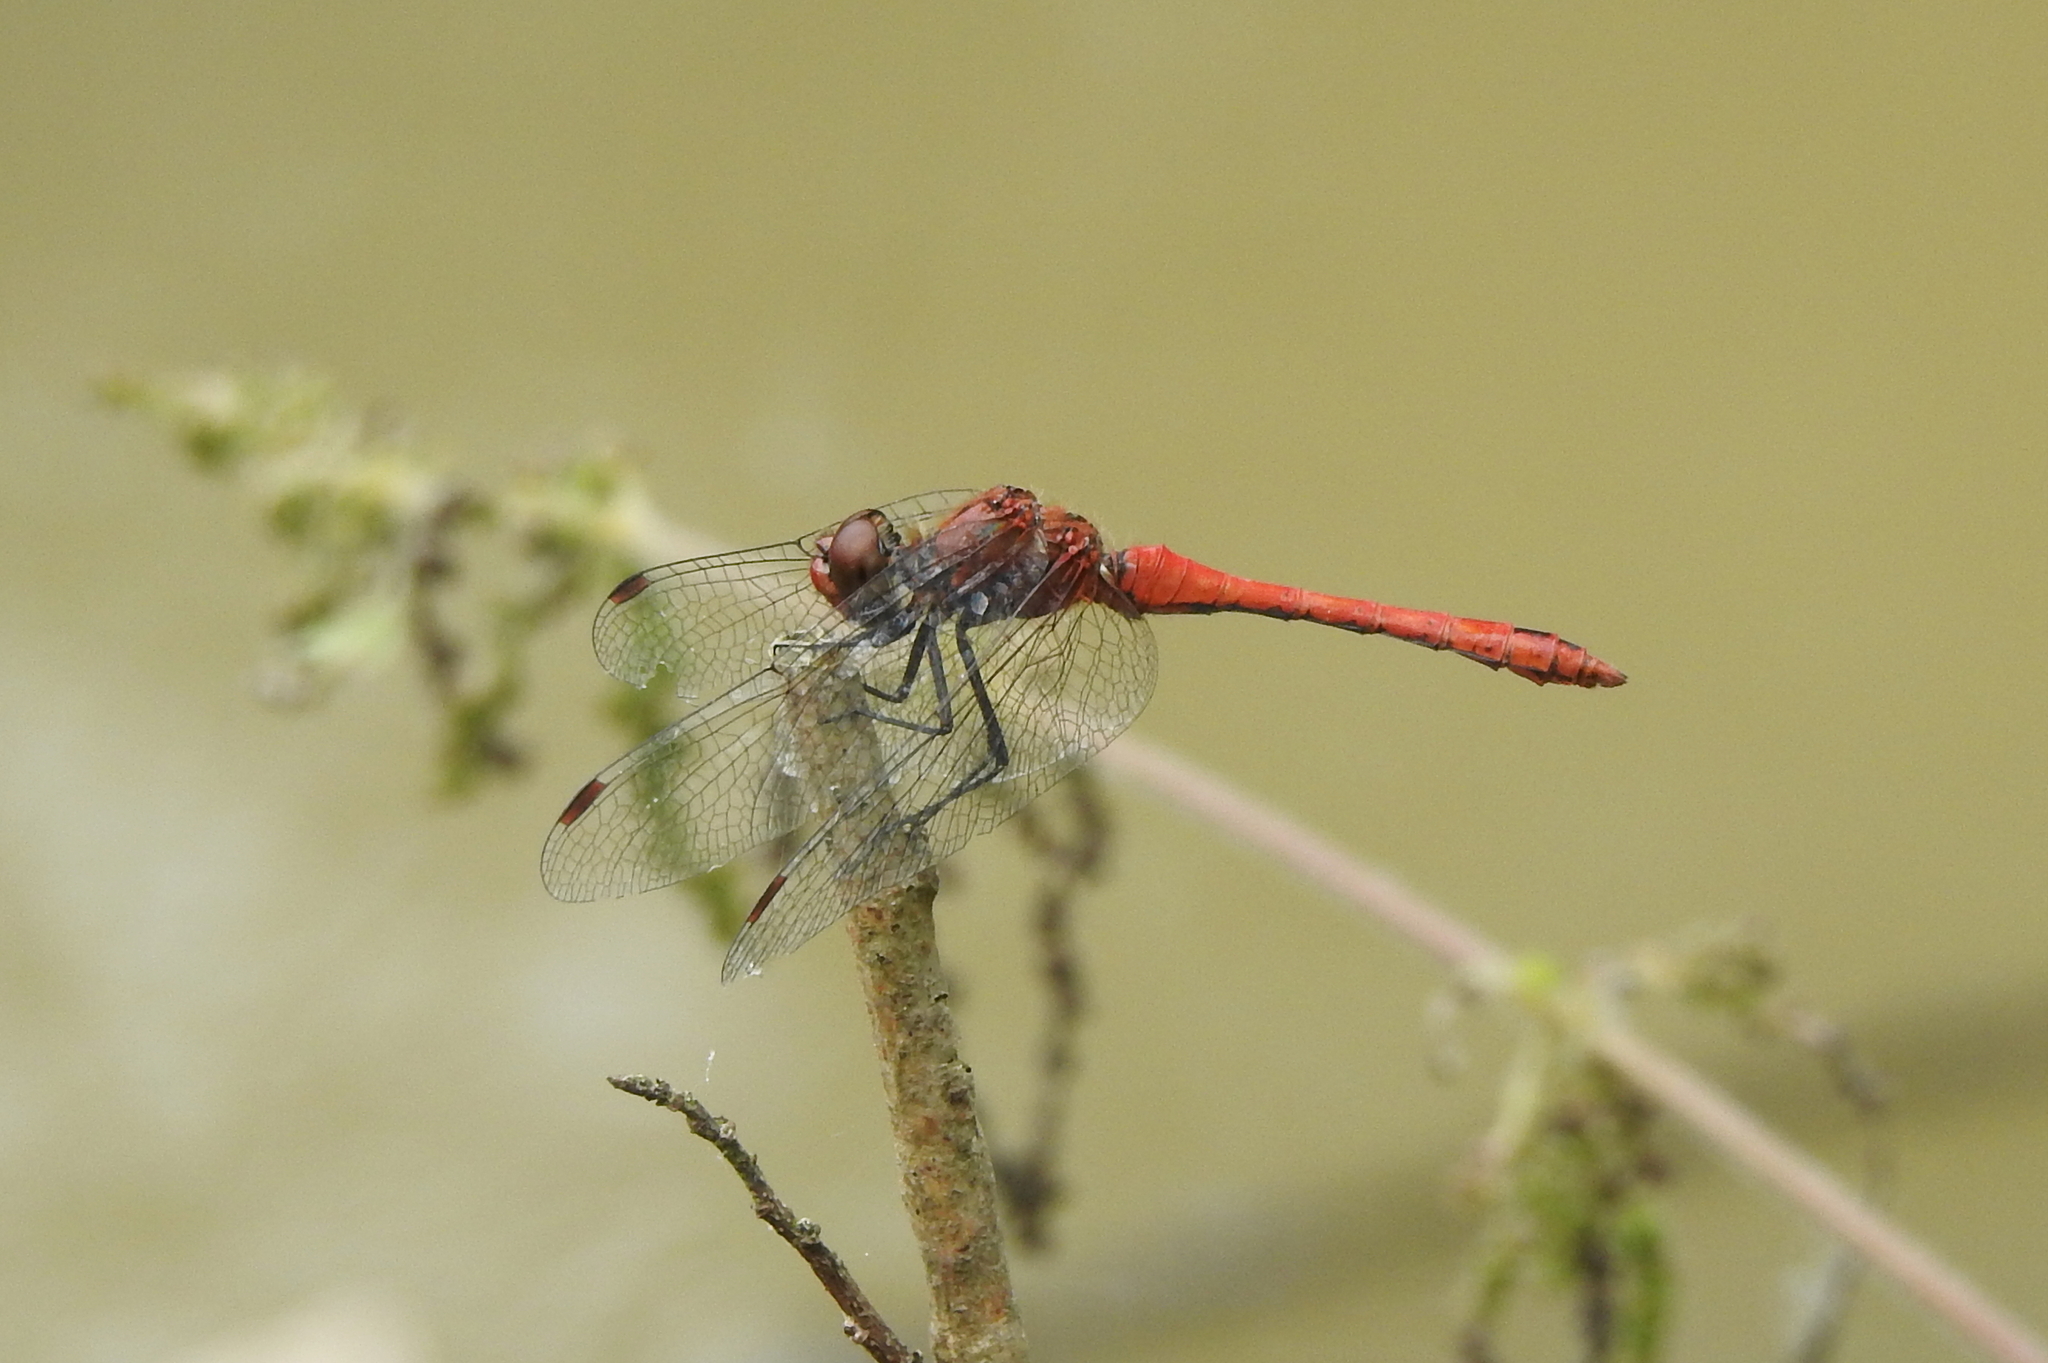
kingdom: Animalia
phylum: Arthropoda
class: Insecta
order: Odonata
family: Libellulidae
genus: Sympetrum
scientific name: Sympetrum sanguineum
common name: Ruddy darter
